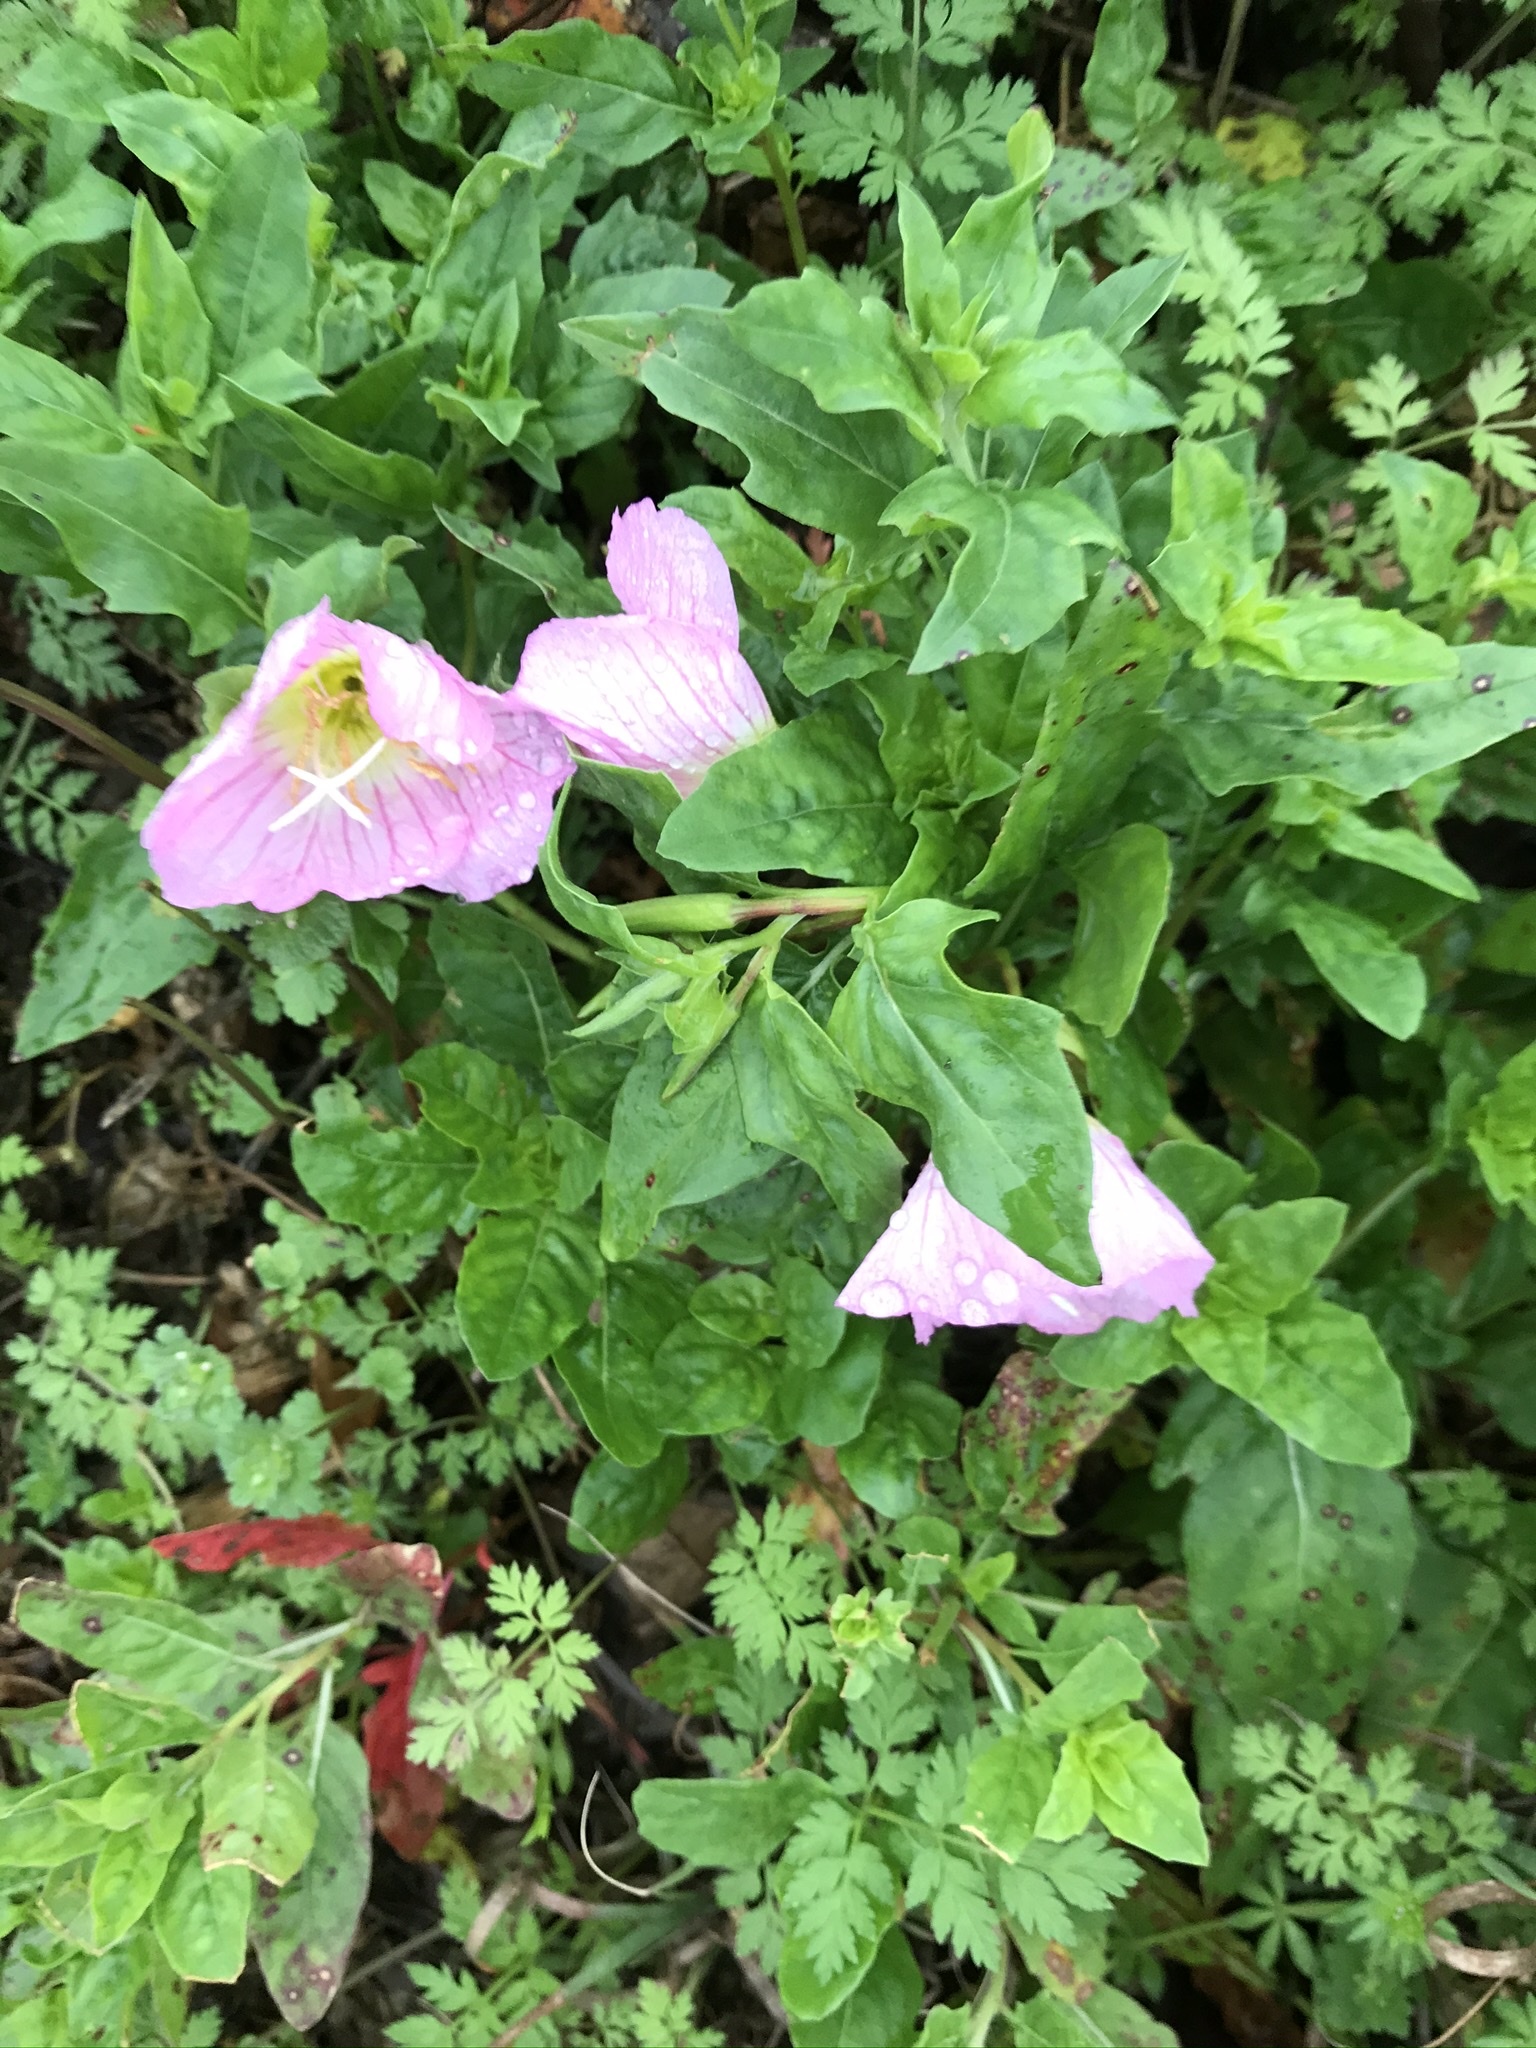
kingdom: Plantae
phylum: Tracheophyta
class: Magnoliopsida
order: Myrtales
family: Onagraceae
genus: Oenothera
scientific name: Oenothera speciosa
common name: White evening-primrose
